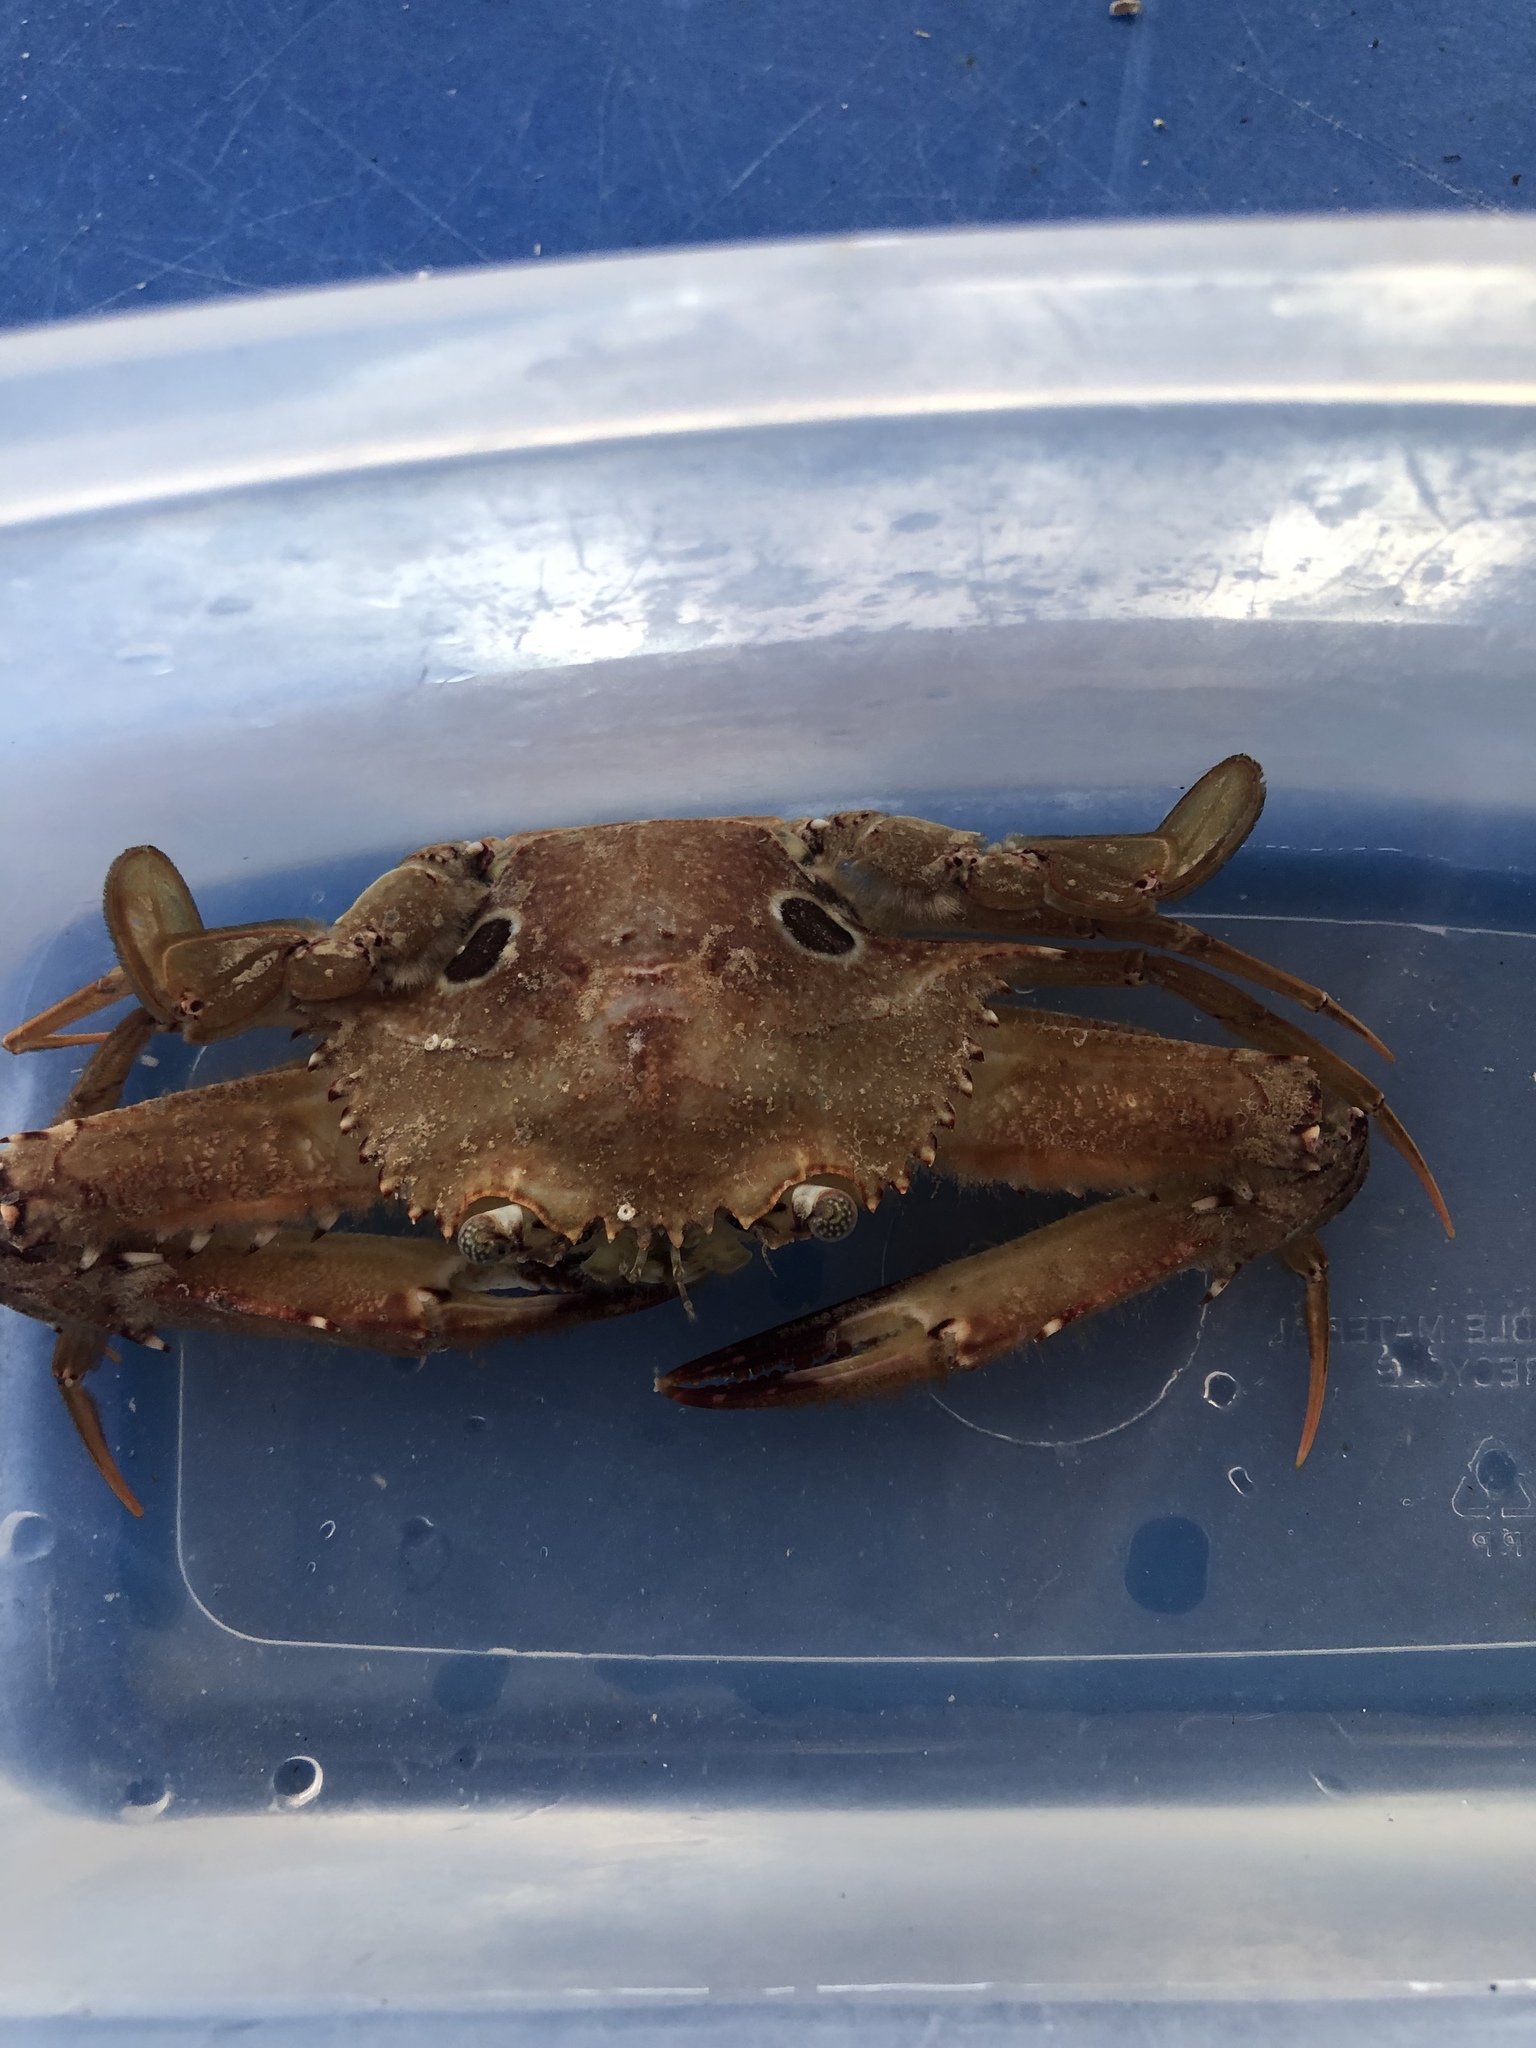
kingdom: Animalia
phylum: Arthropoda
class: Malacostraca
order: Decapoda
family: Portunidae
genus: Achelous
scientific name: Achelous sebae
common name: Ocellate swimming crab
